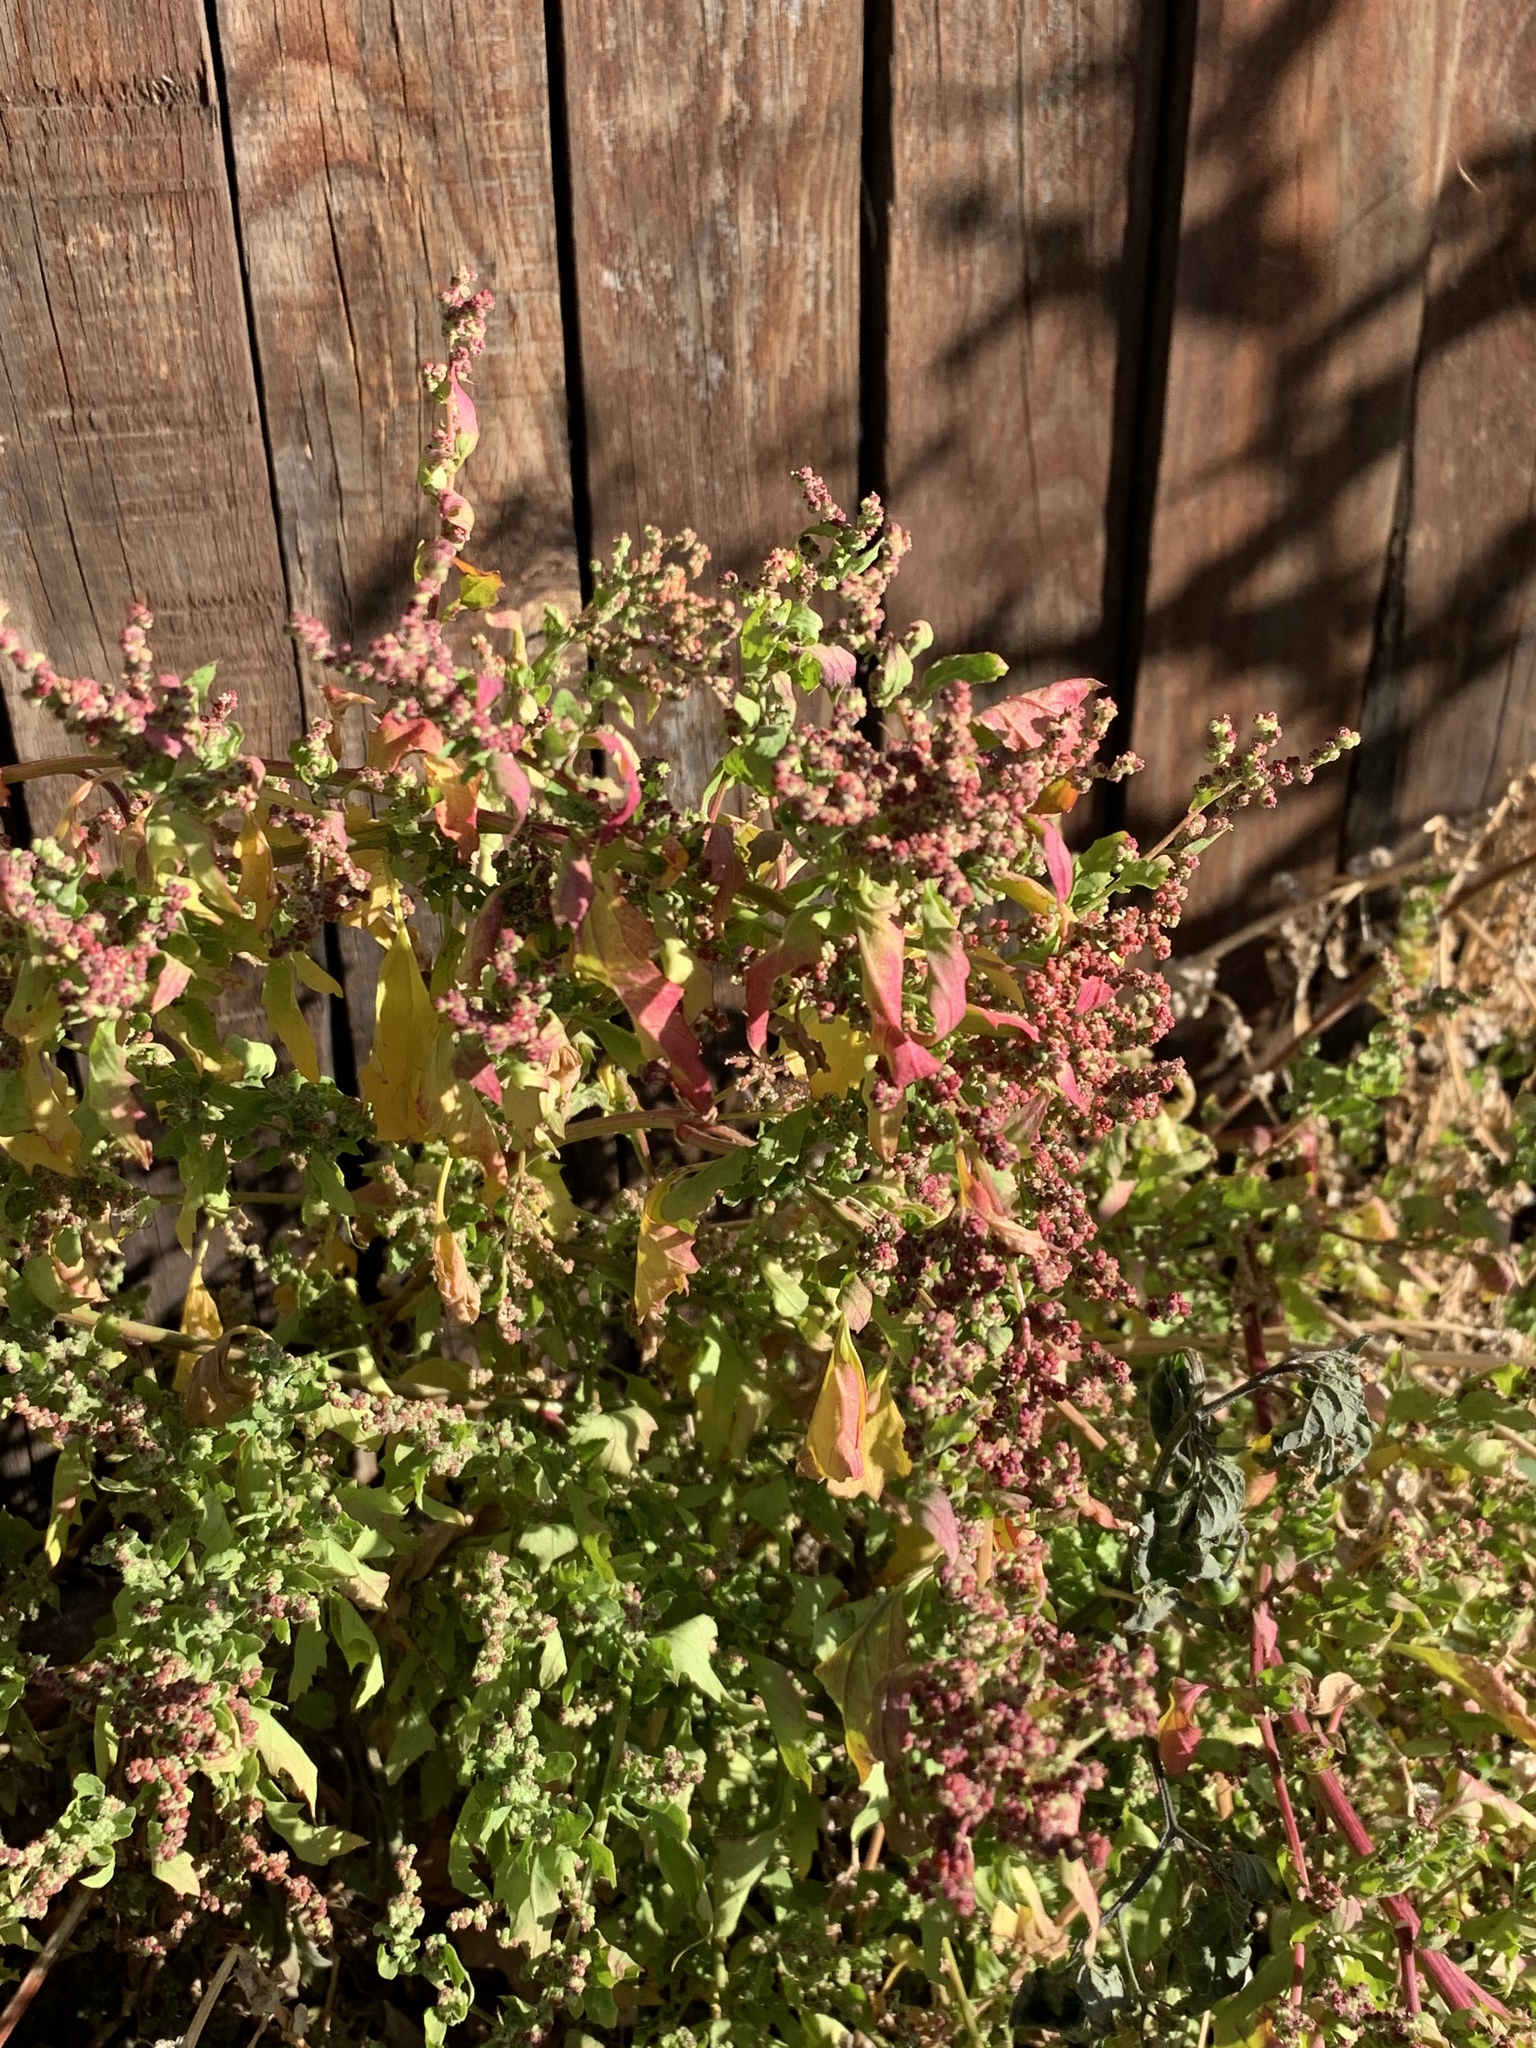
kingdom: Plantae
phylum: Tracheophyta
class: Magnoliopsida
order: Caryophyllales
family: Amaranthaceae
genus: Chenopodiastrum
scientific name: Chenopodiastrum murale
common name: Sowbane
